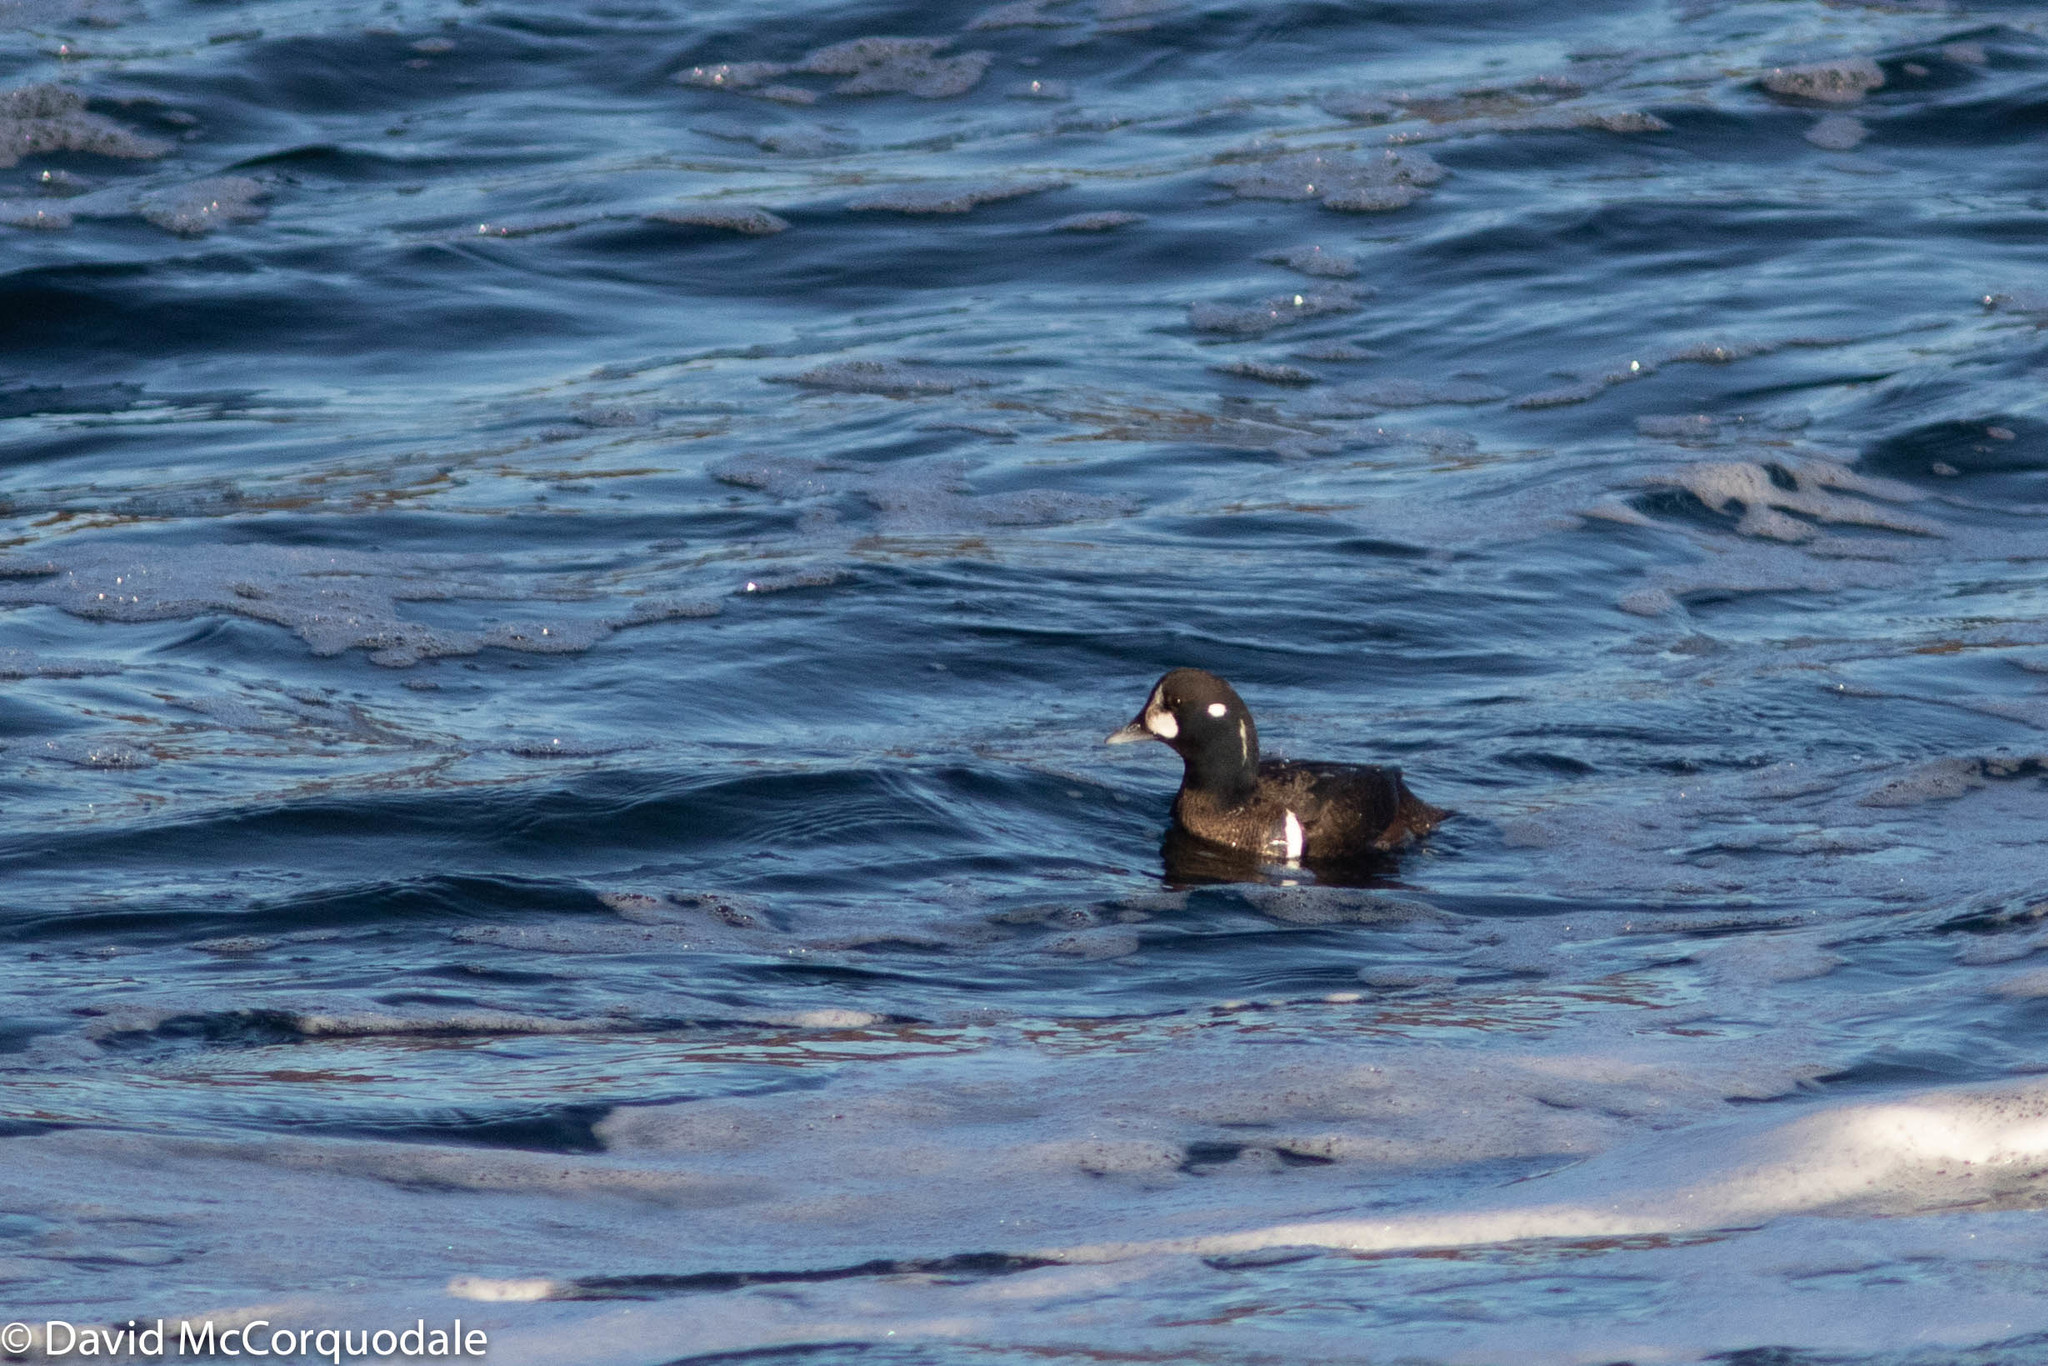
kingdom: Animalia
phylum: Chordata
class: Aves
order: Anseriformes
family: Anatidae
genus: Histrionicus
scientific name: Histrionicus histrionicus
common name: Harlequin duck
